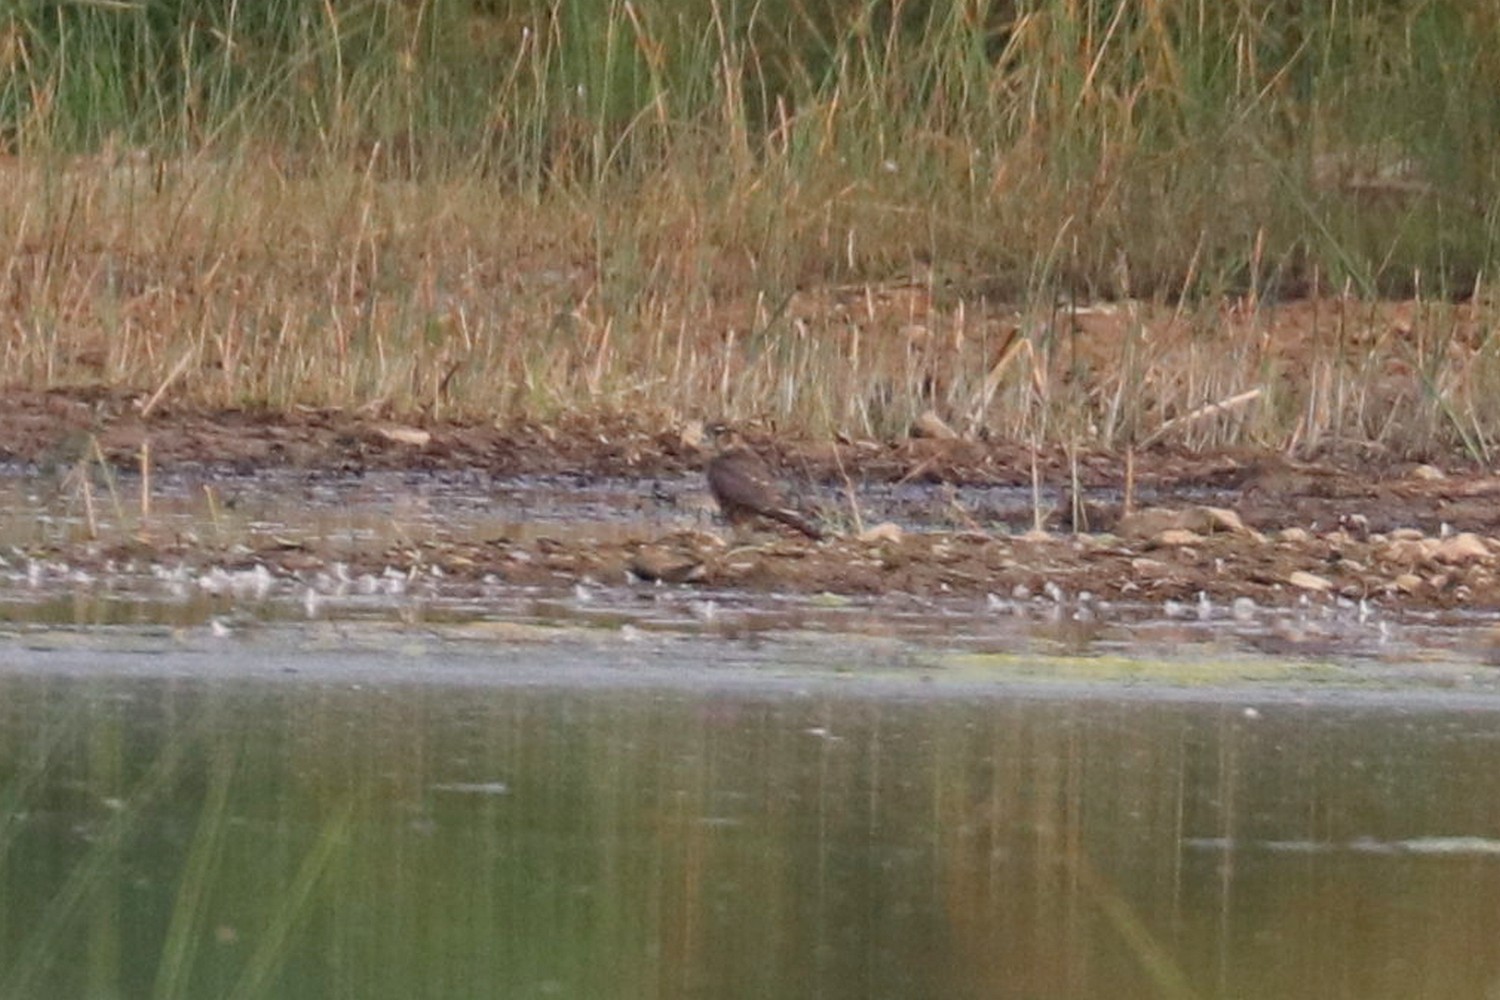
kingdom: Animalia
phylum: Chordata
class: Aves
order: Falconiformes
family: Falconidae
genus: Falco
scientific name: Falco columbarius
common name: Merlin
